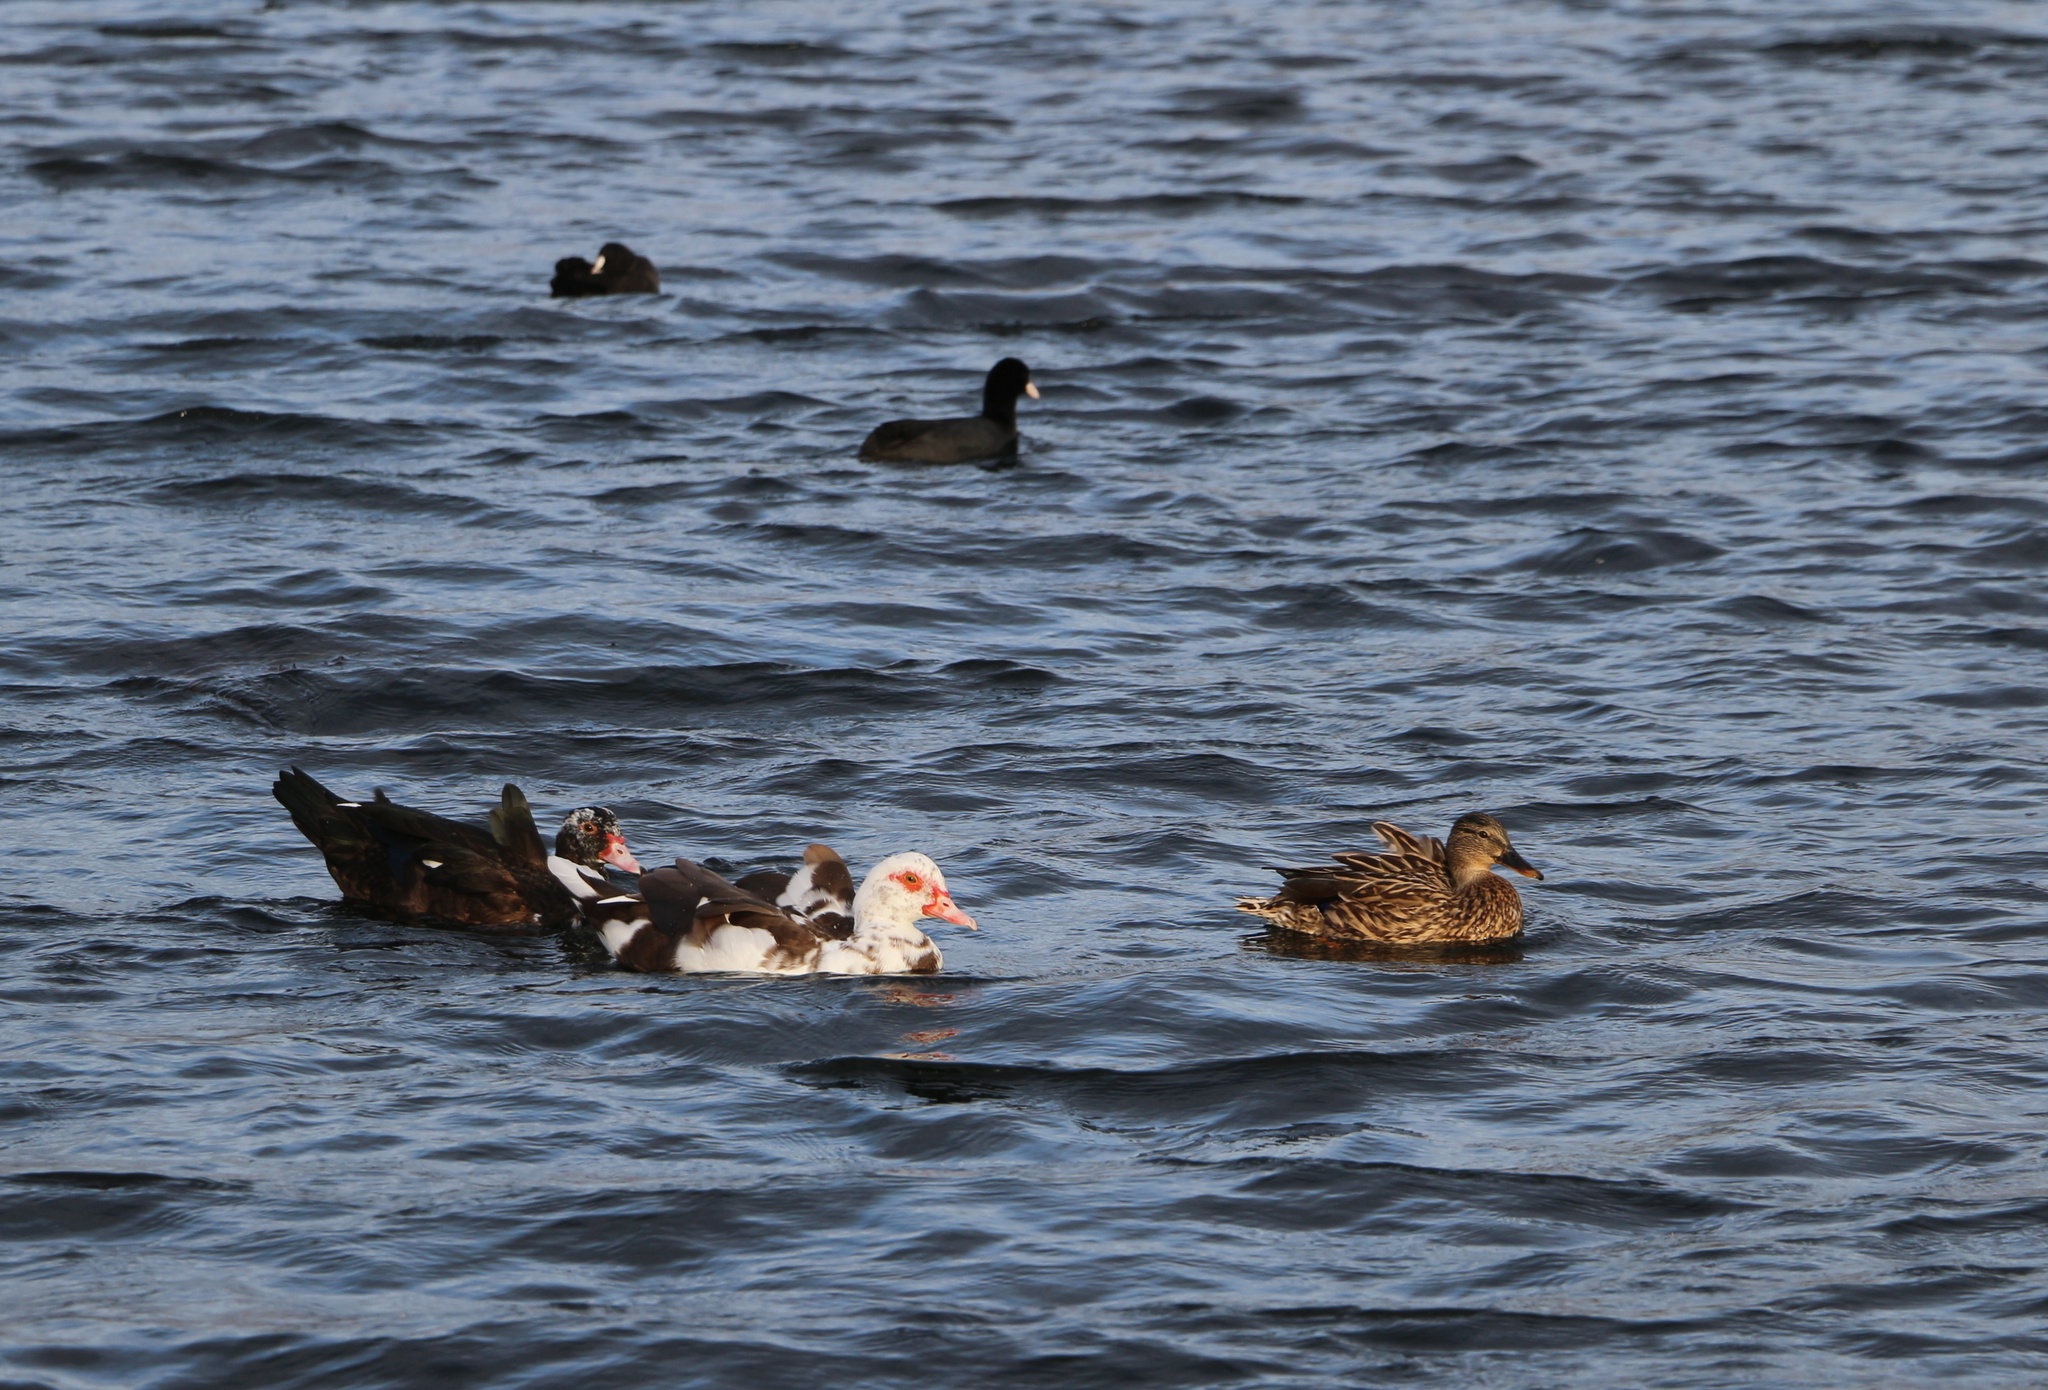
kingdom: Animalia
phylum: Chordata
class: Aves
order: Anseriformes
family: Anatidae
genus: Cairina
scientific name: Cairina moschata
